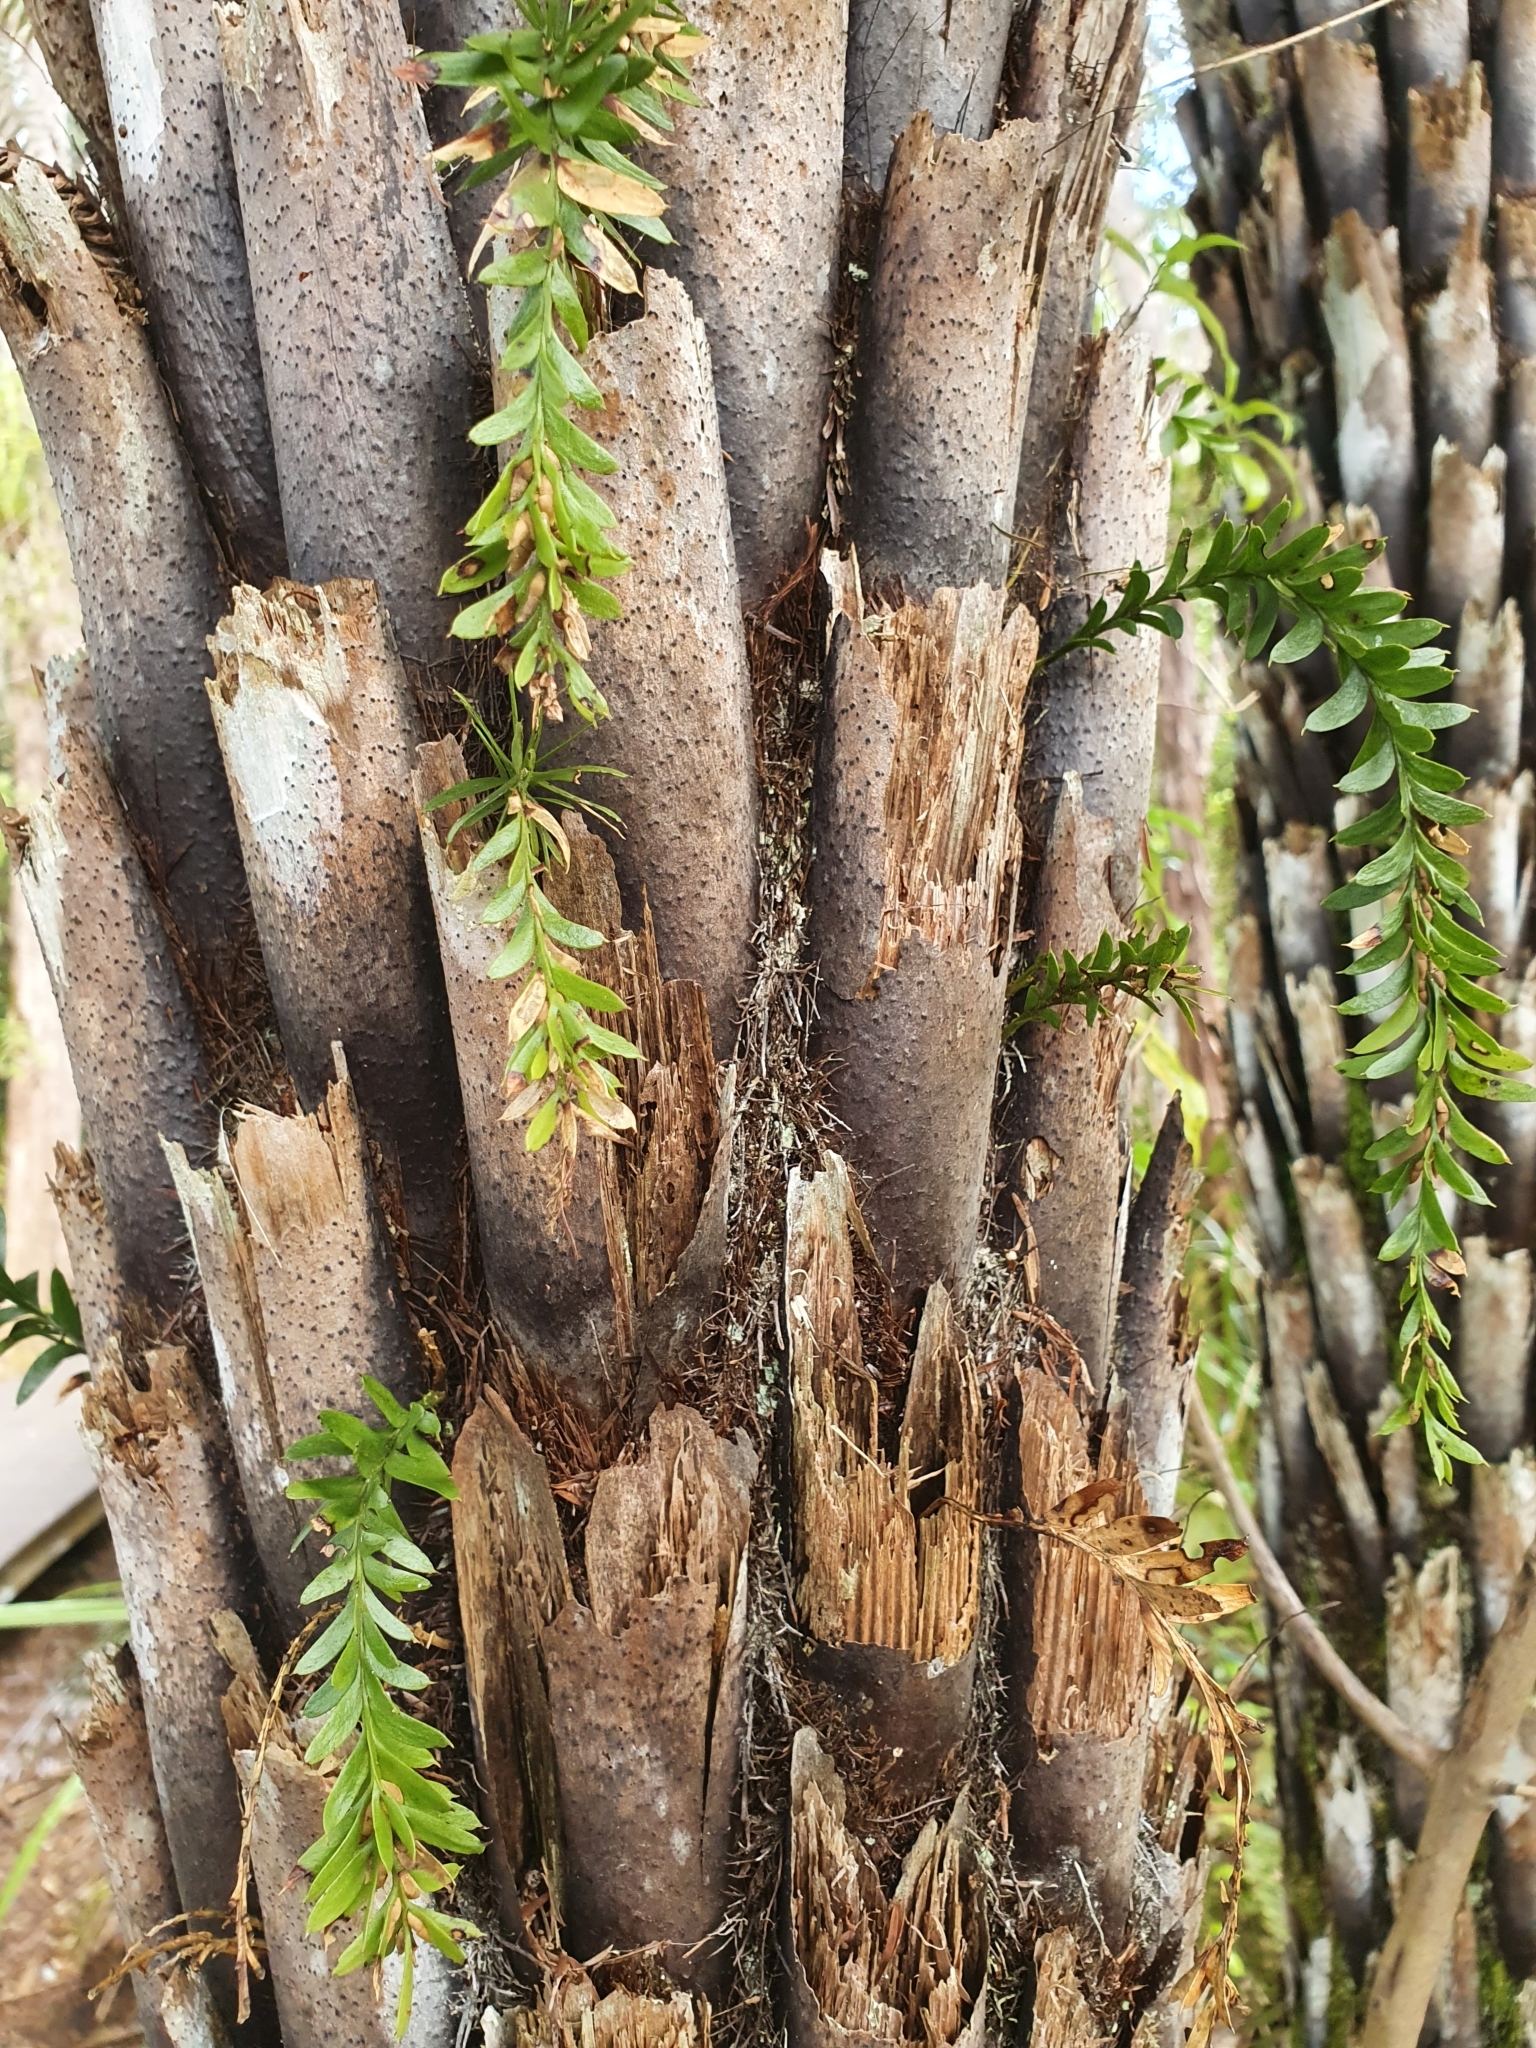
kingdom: Plantae
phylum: Tracheophyta
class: Polypodiopsida
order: Psilotales
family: Psilotaceae
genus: Tmesipteris
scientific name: Tmesipteris tannensis
